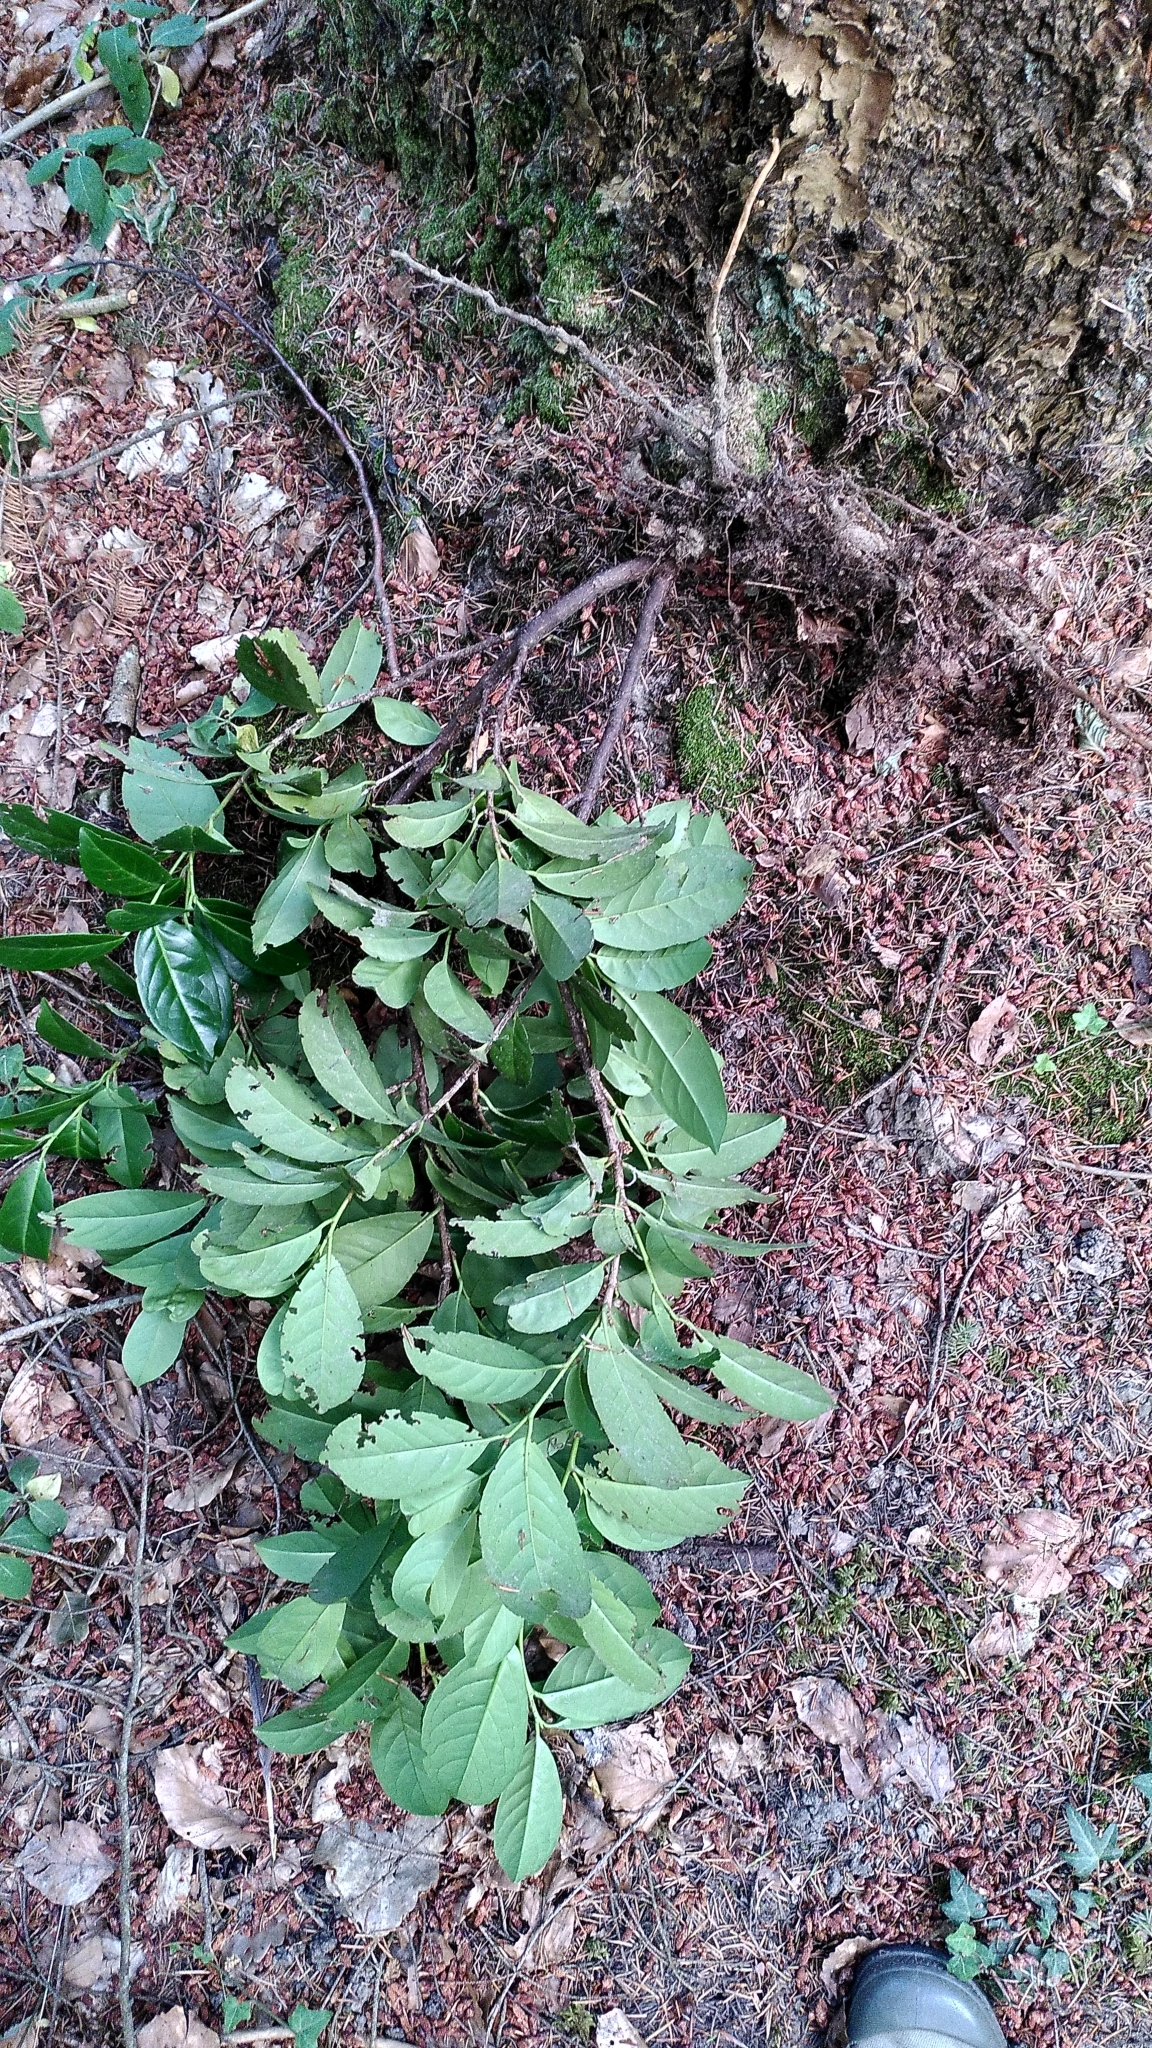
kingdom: Plantae
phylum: Tracheophyta
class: Magnoliopsida
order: Rosales
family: Rosaceae
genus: Prunus
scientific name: Prunus laurocerasus
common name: Cherry laurel
